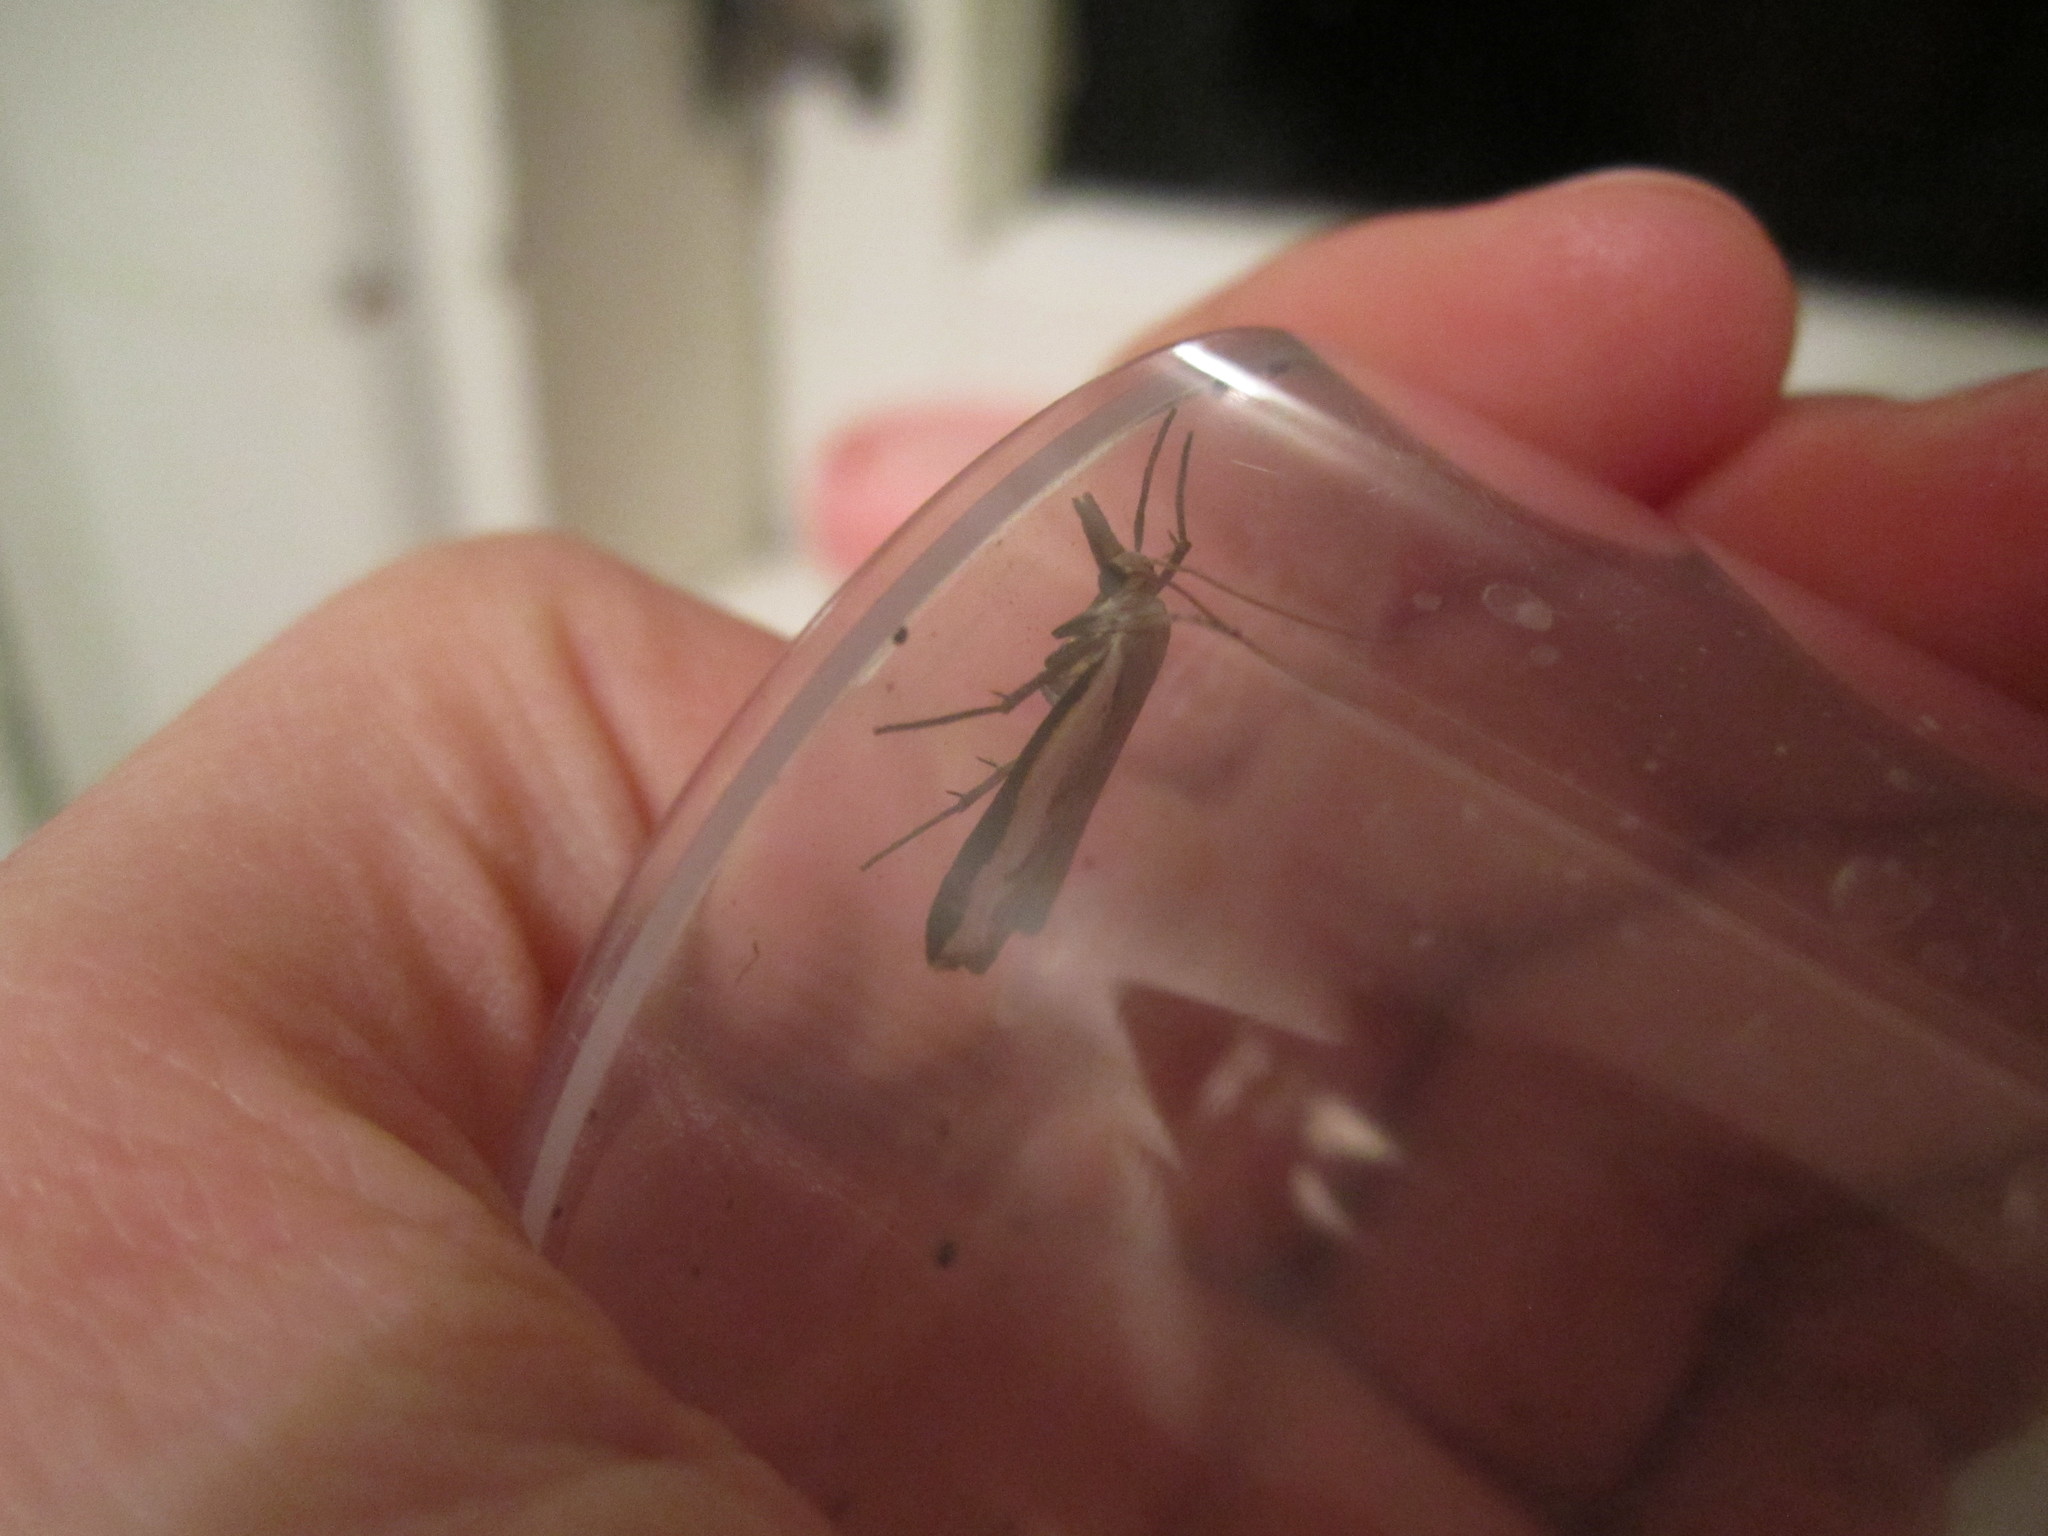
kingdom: Animalia
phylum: Arthropoda
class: Insecta
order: Lepidoptera
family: Crambidae
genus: Orocrambus
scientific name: Orocrambus flexuosellus
